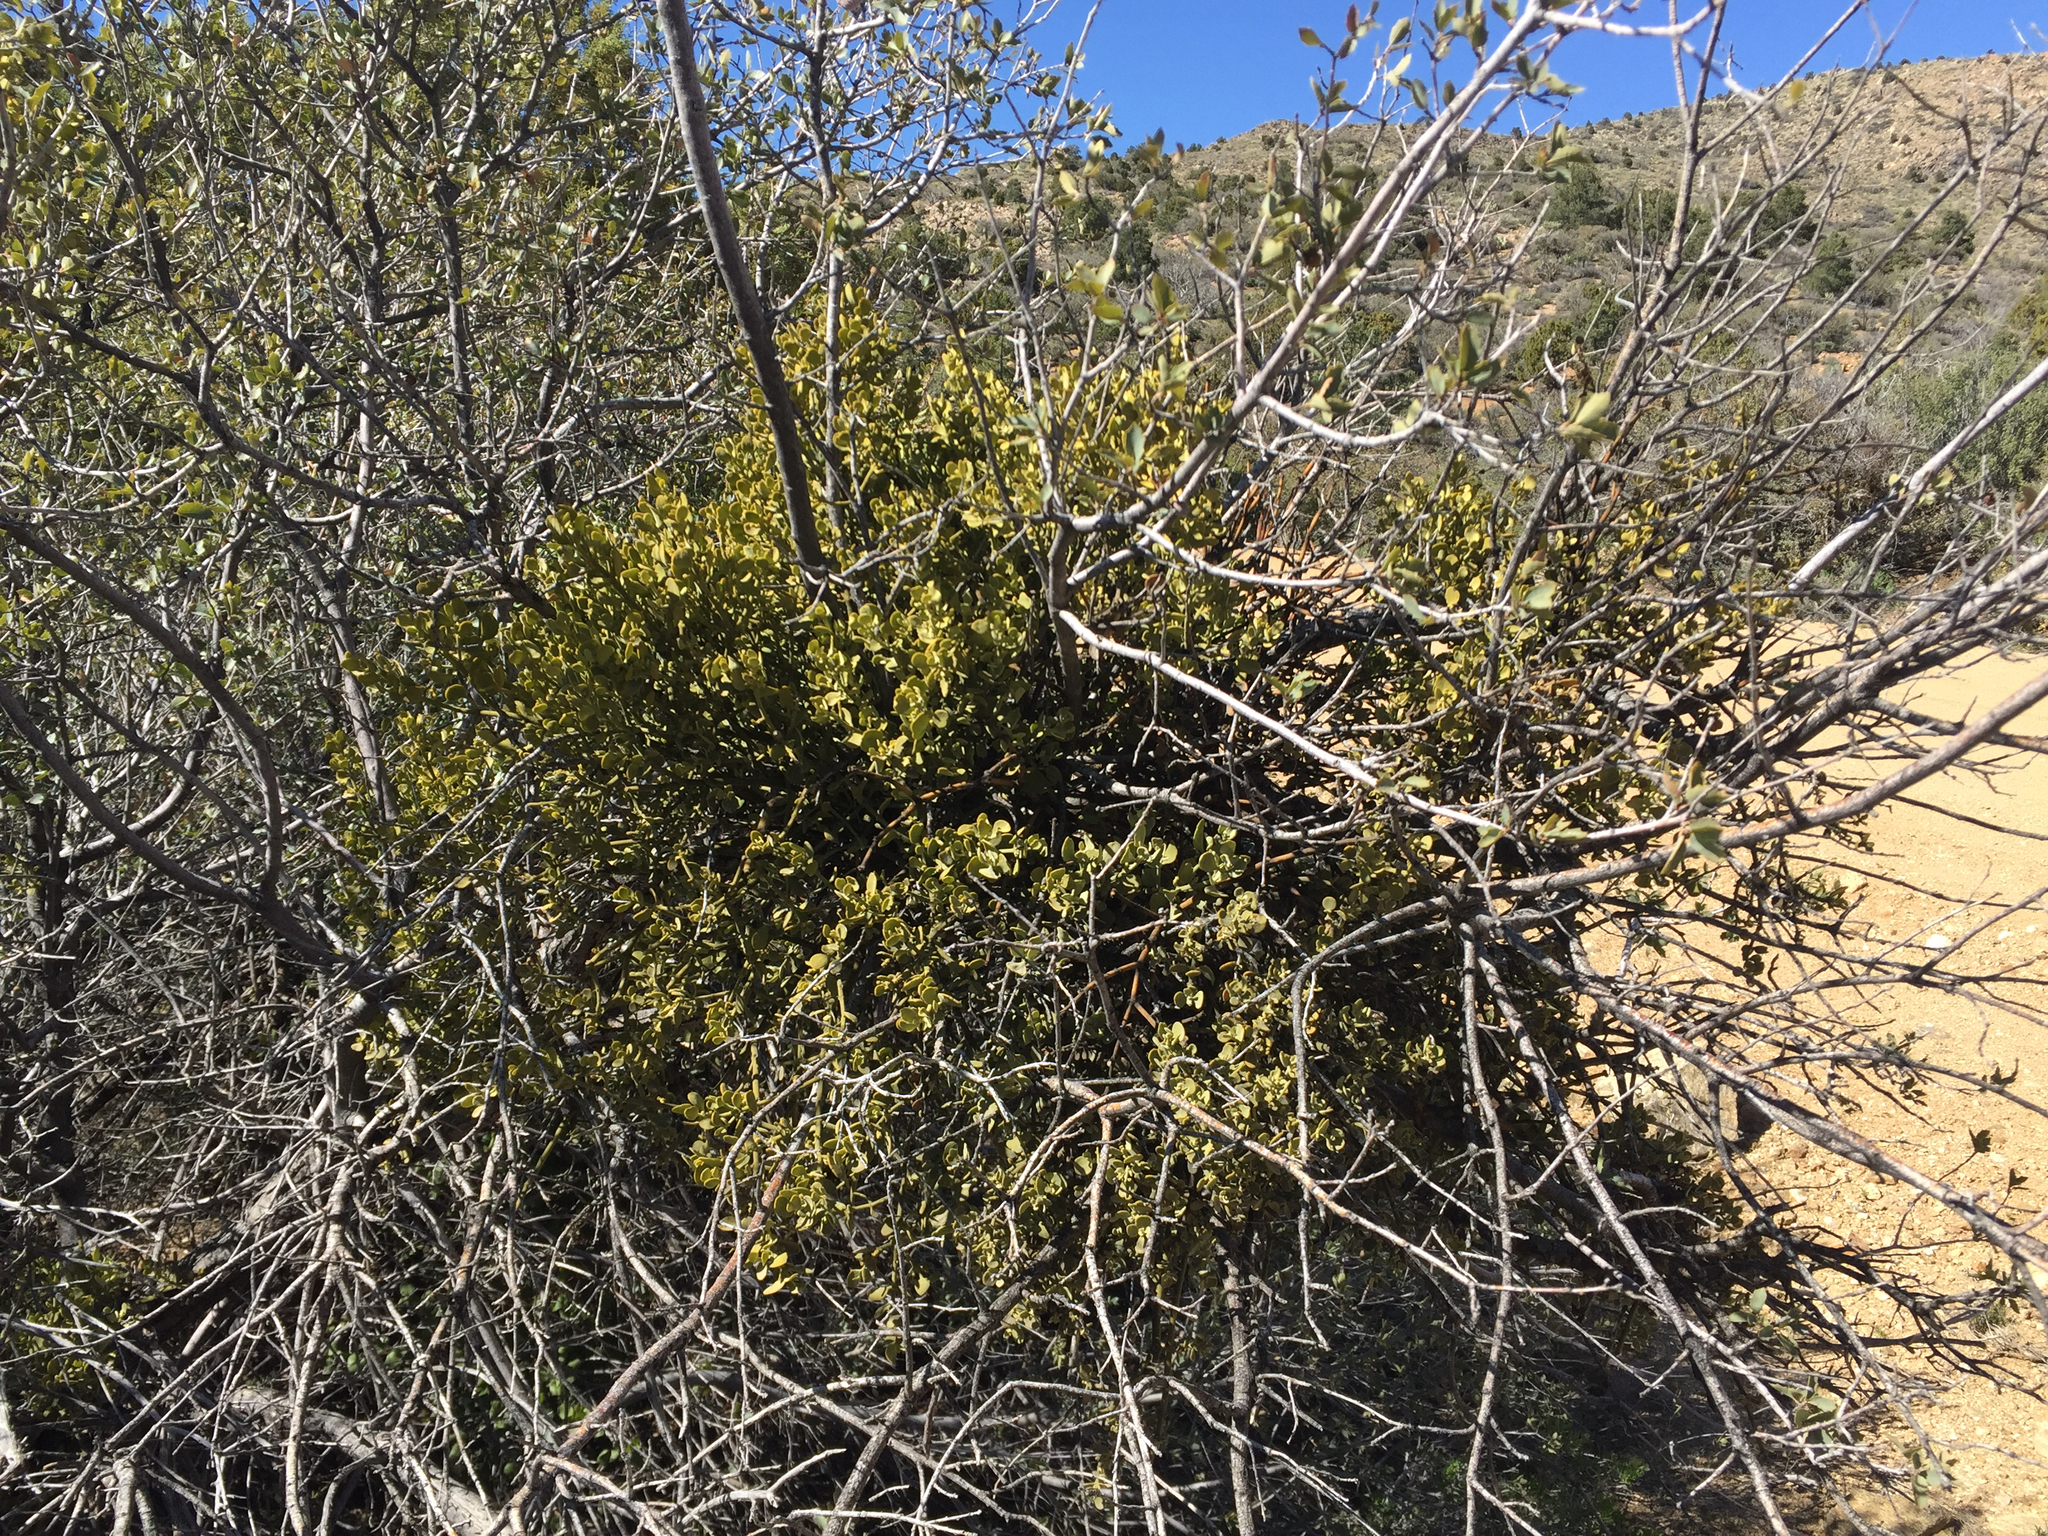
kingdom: Plantae
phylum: Tracheophyta
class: Magnoliopsida
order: Santalales
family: Viscaceae
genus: Phoradendron
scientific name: Phoradendron coryae
